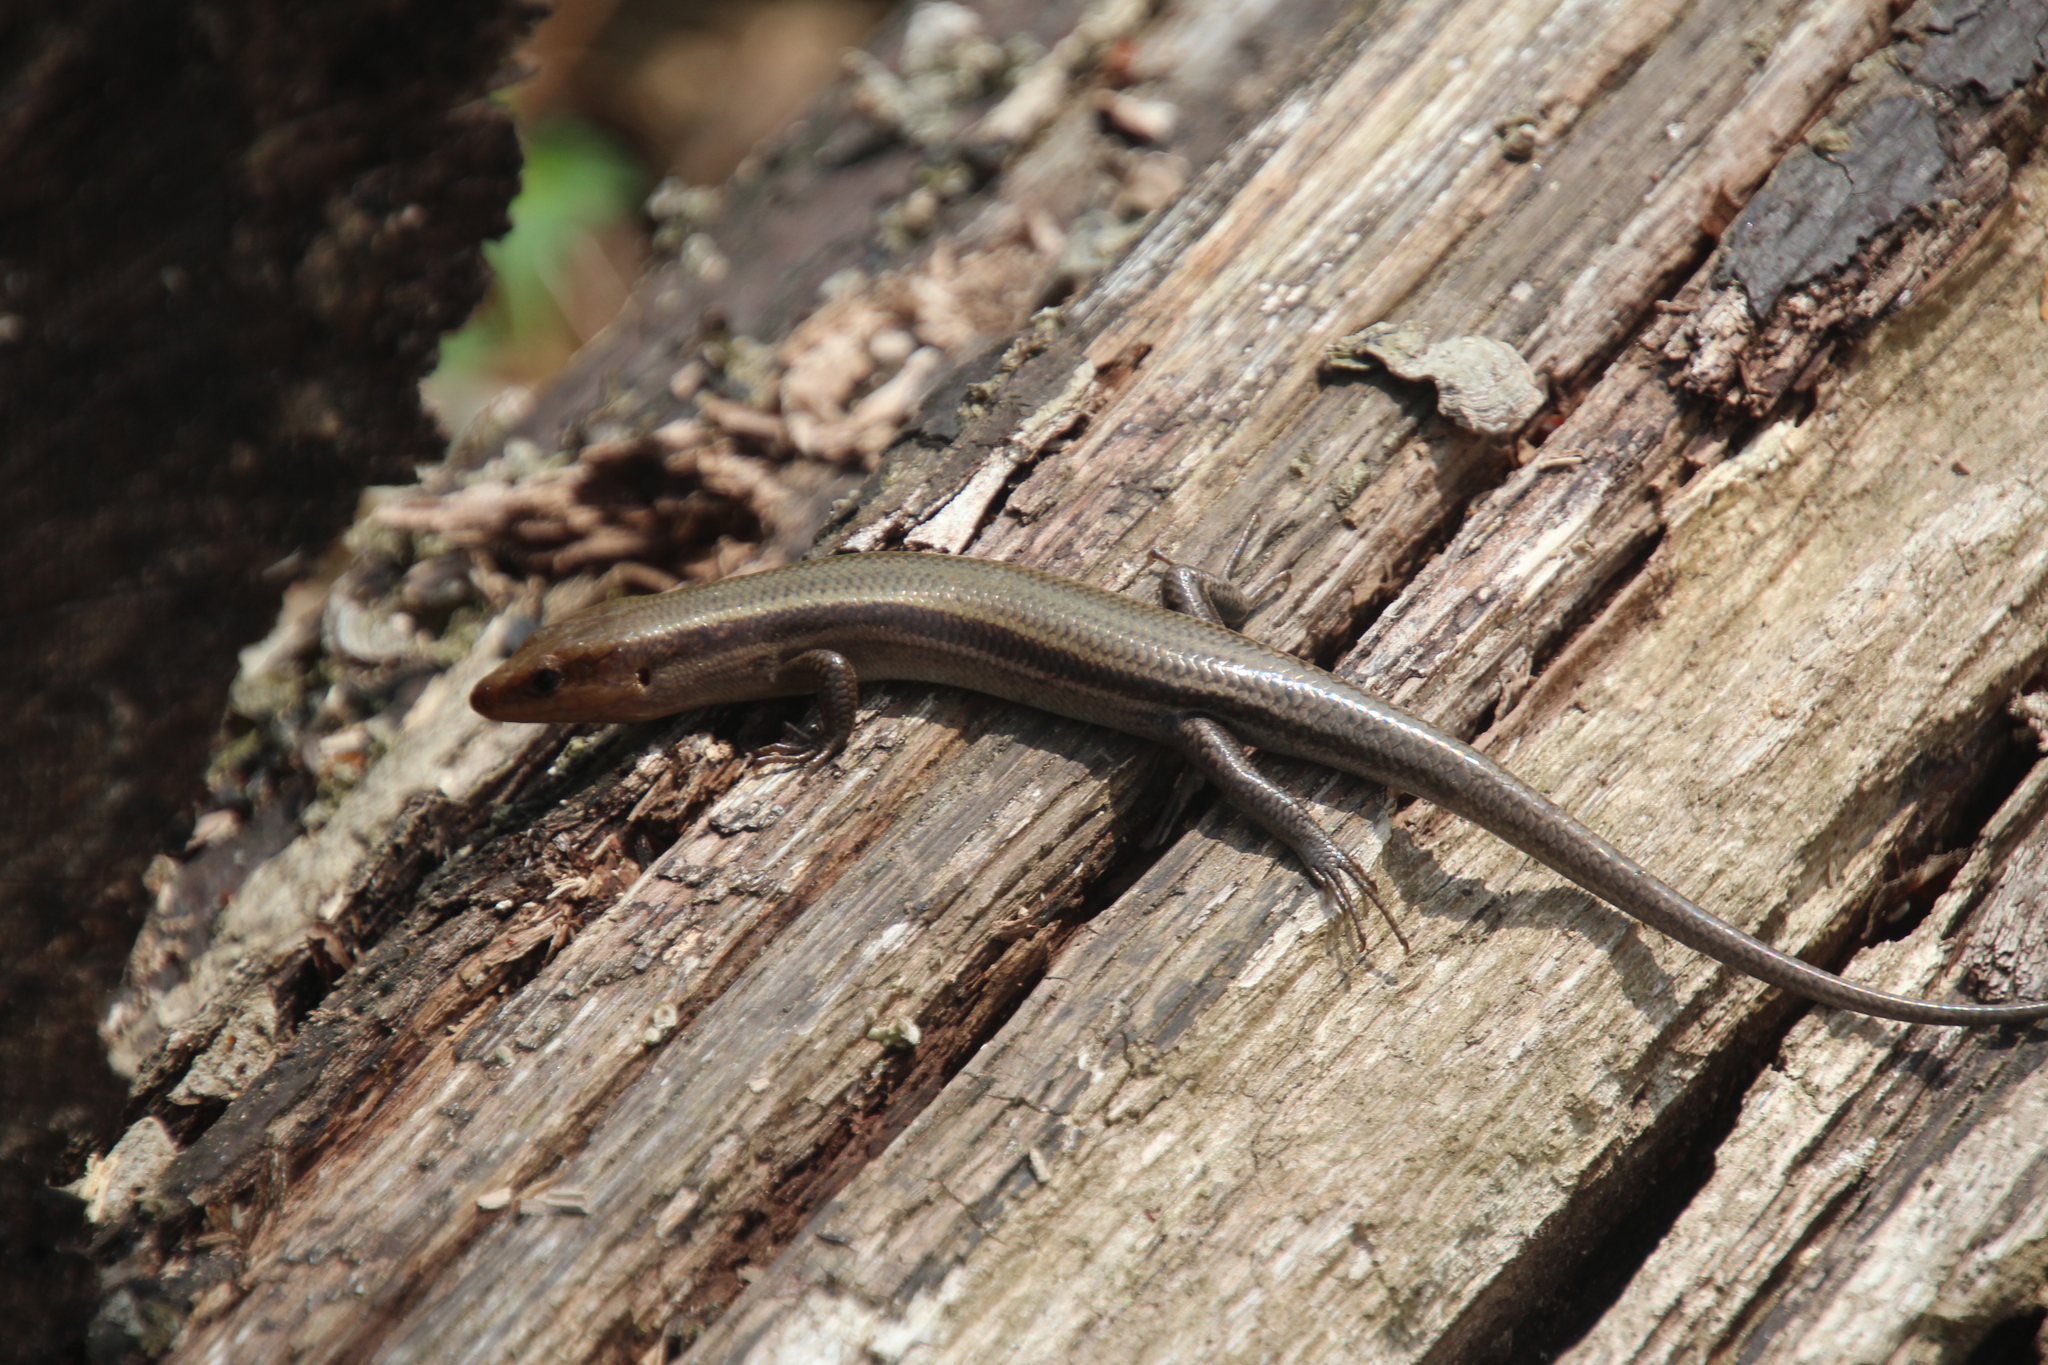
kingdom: Animalia
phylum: Chordata
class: Squamata
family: Scincidae
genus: Plestiodon
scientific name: Plestiodon fasciatus
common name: Five-lined skink
